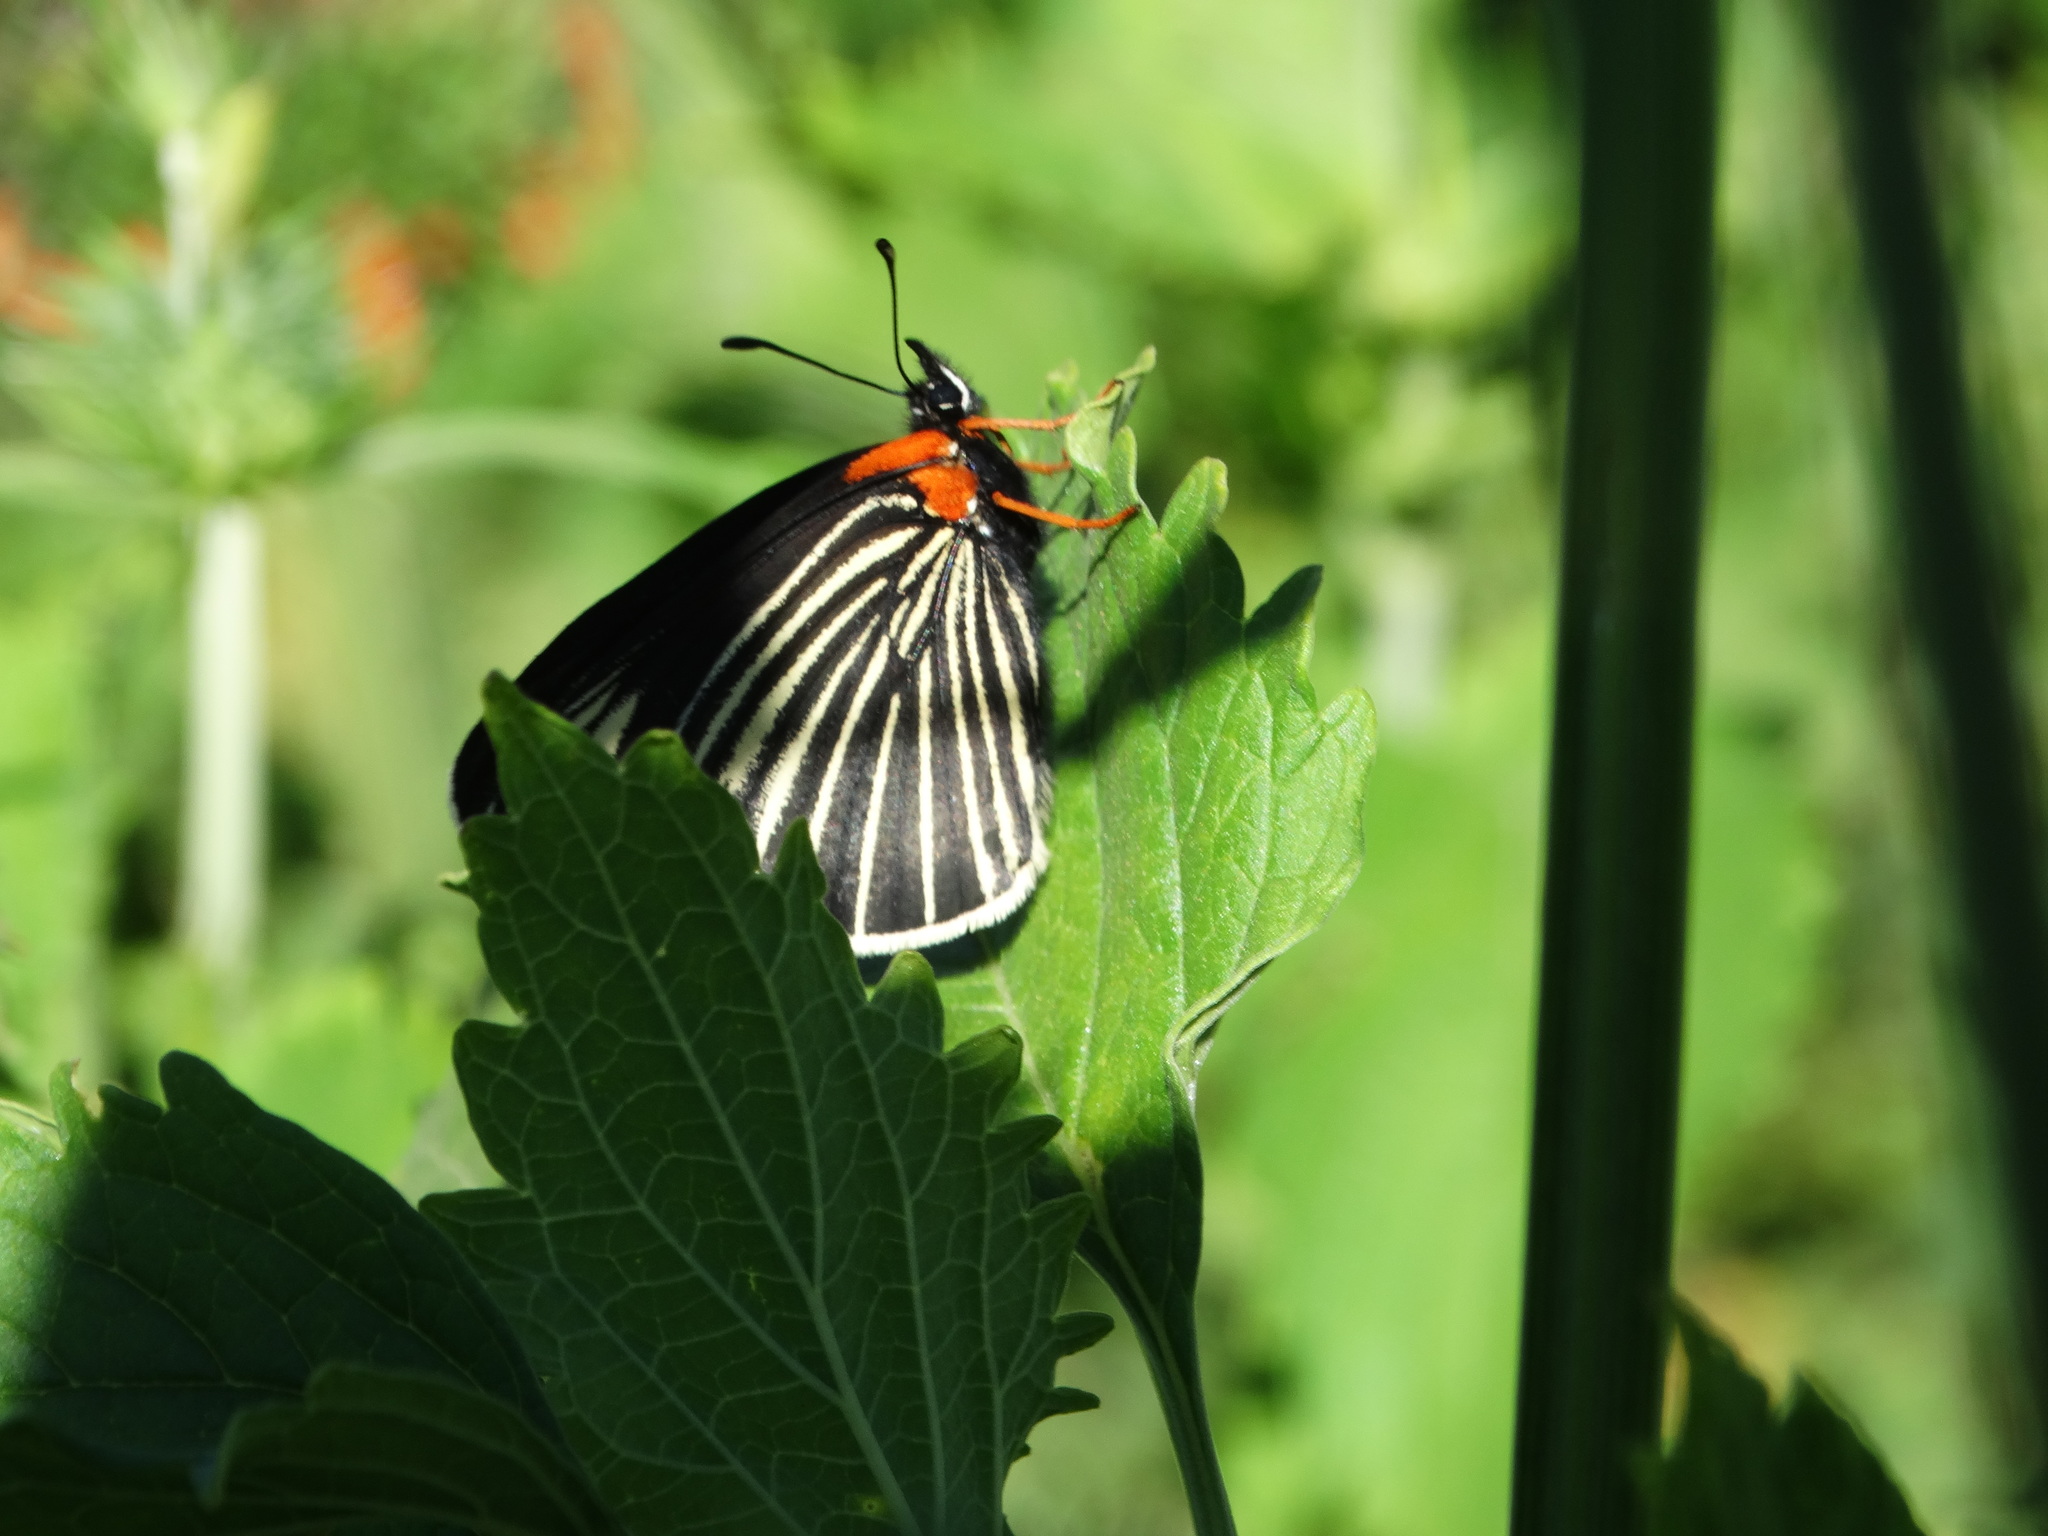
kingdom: Animalia
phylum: Arthropoda
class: Insecta
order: Lepidoptera
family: Nymphalidae
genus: Chlosyne
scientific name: Chlosyne ehrenbergii
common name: White-rayed patch
